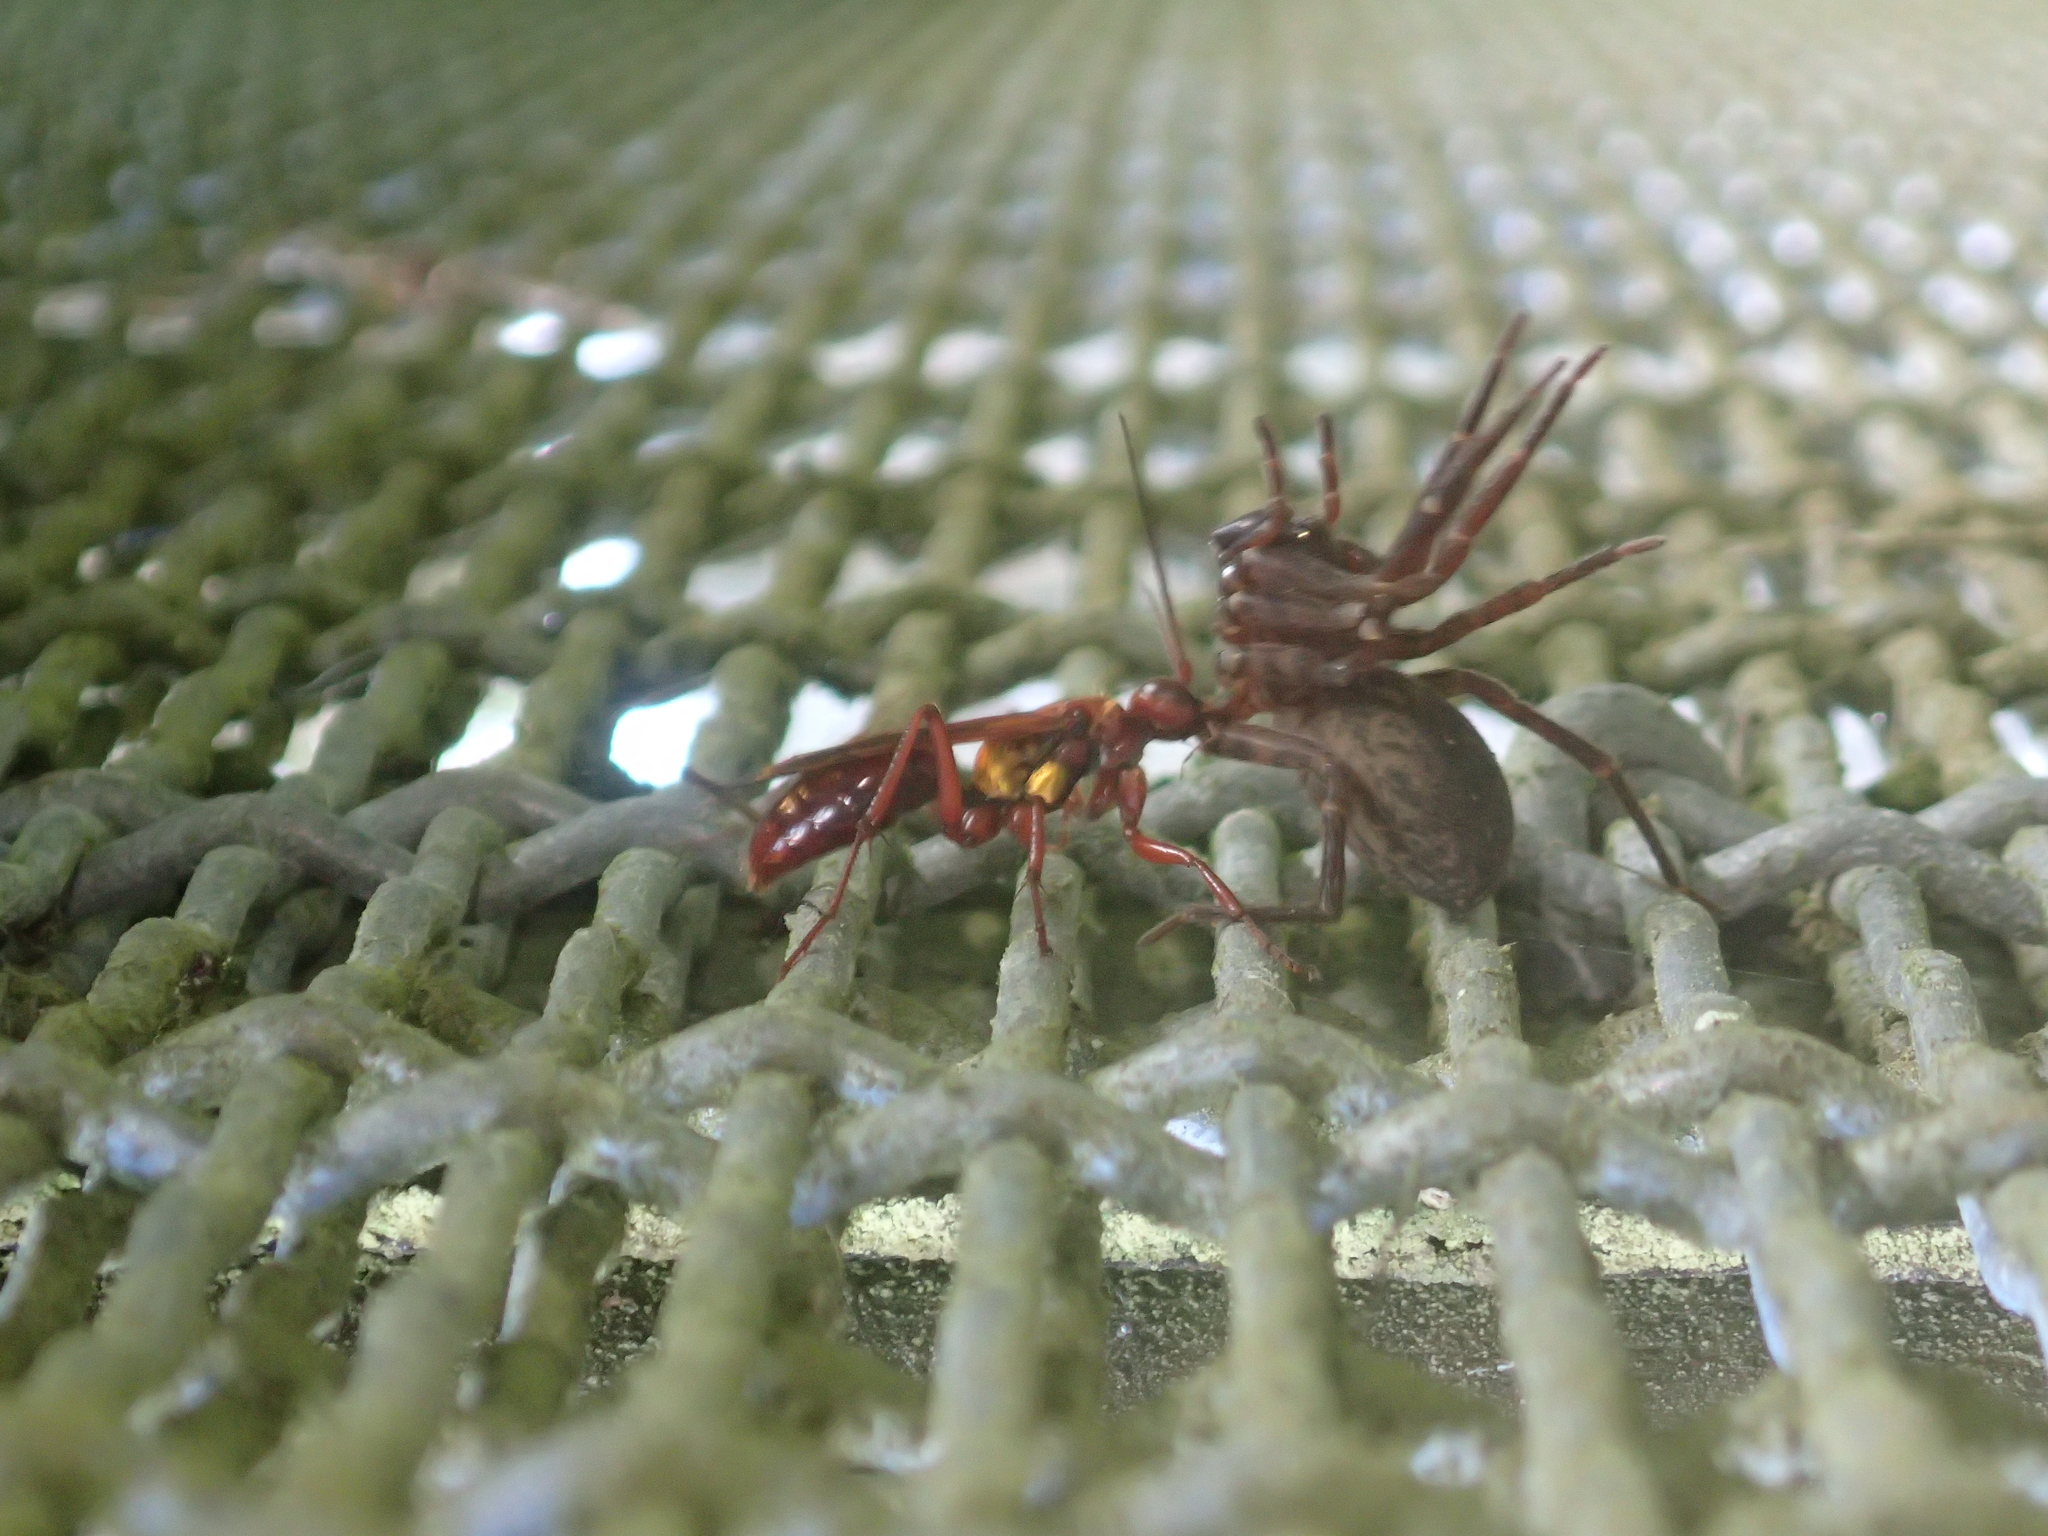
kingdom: Animalia
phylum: Arthropoda
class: Insecta
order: Hymenoptera
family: Pompilidae
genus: Sphictostethus
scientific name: Sphictostethus nitidus
